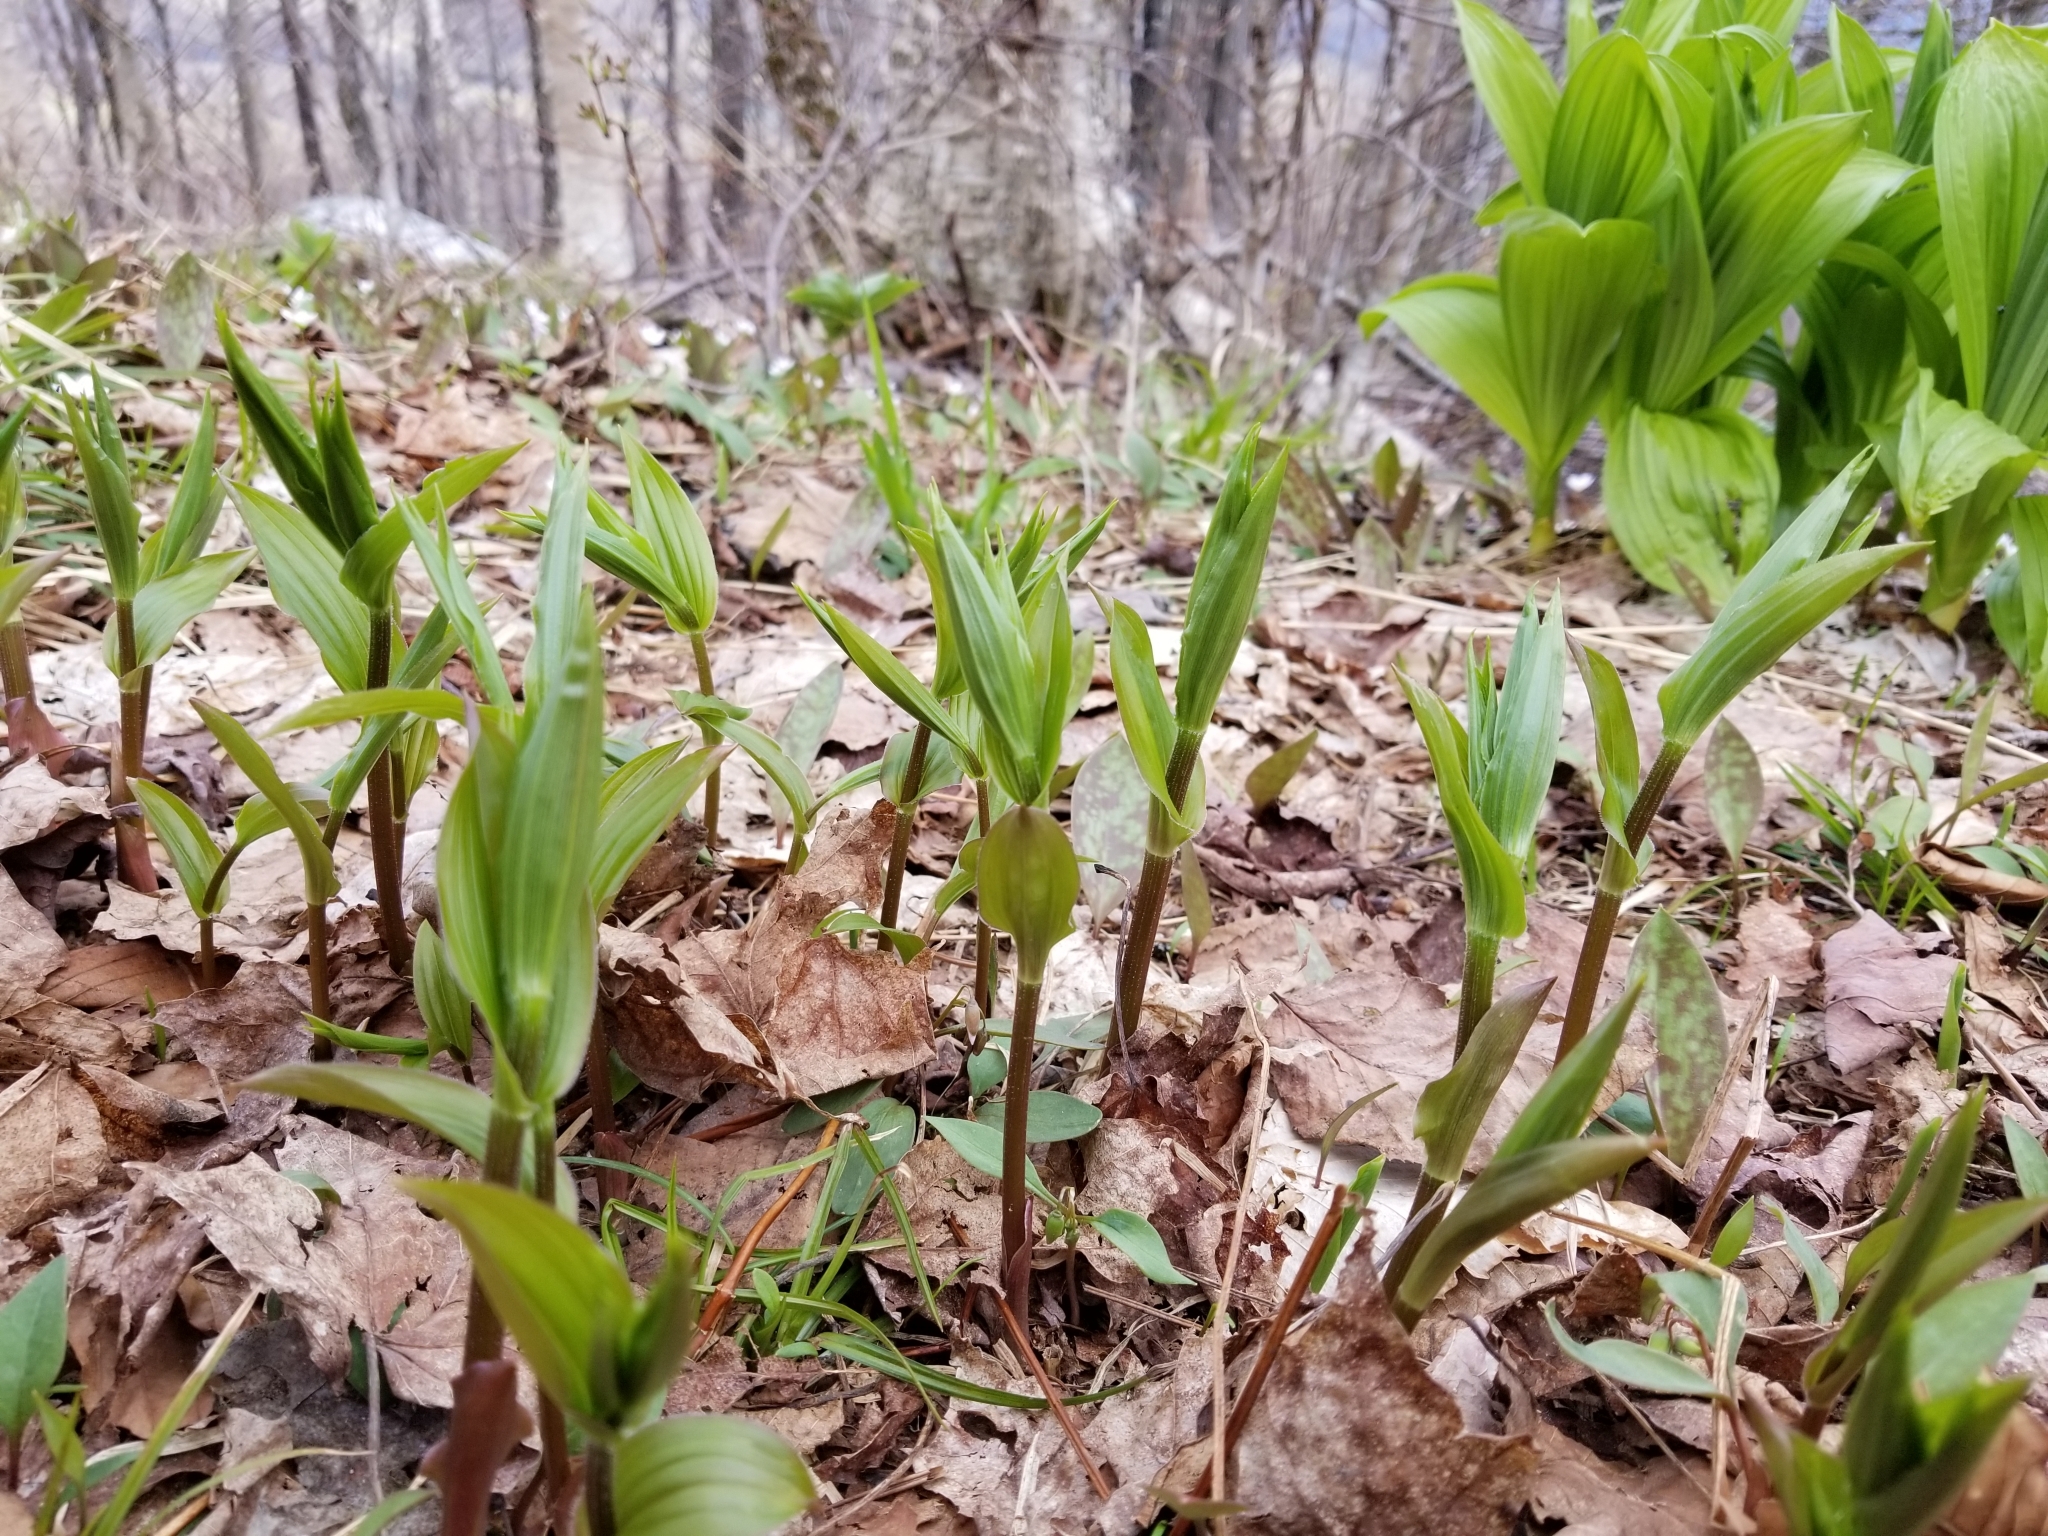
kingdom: Plantae
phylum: Tracheophyta
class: Liliopsida
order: Liliales
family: Liliaceae
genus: Streptopus
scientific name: Streptopus lanceolatus
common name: Rose mandarin
